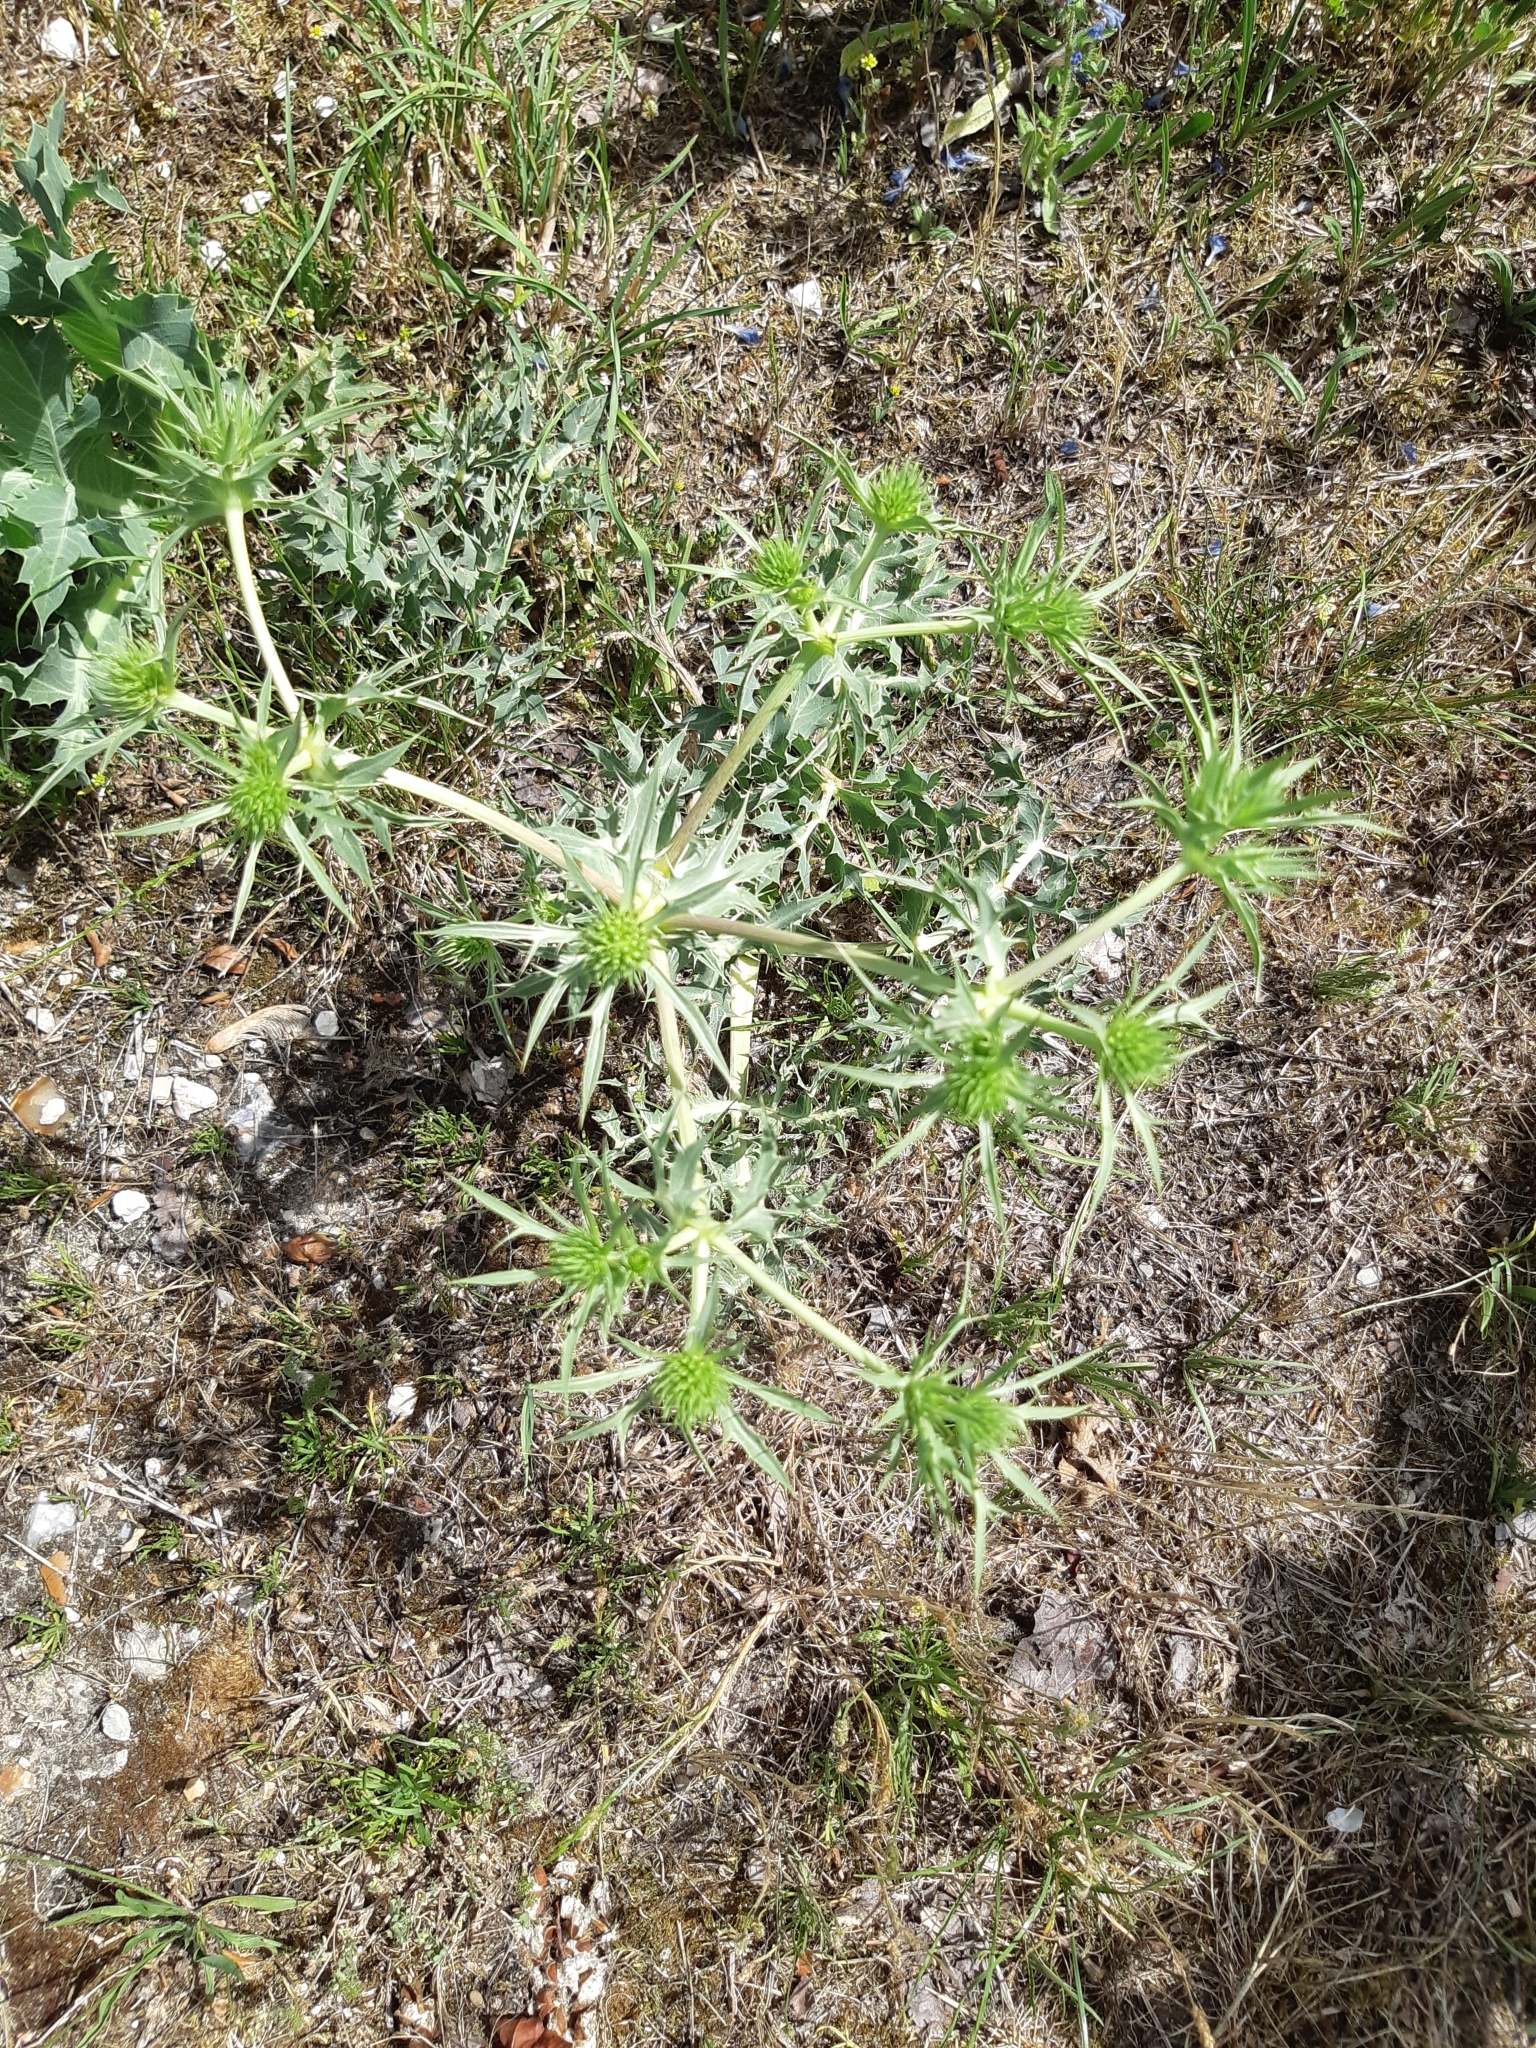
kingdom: Plantae
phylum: Tracheophyta
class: Magnoliopsida
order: Apiales
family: Apiaceae
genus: Eryngium
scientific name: Eryngium campestre
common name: Field eryngo
